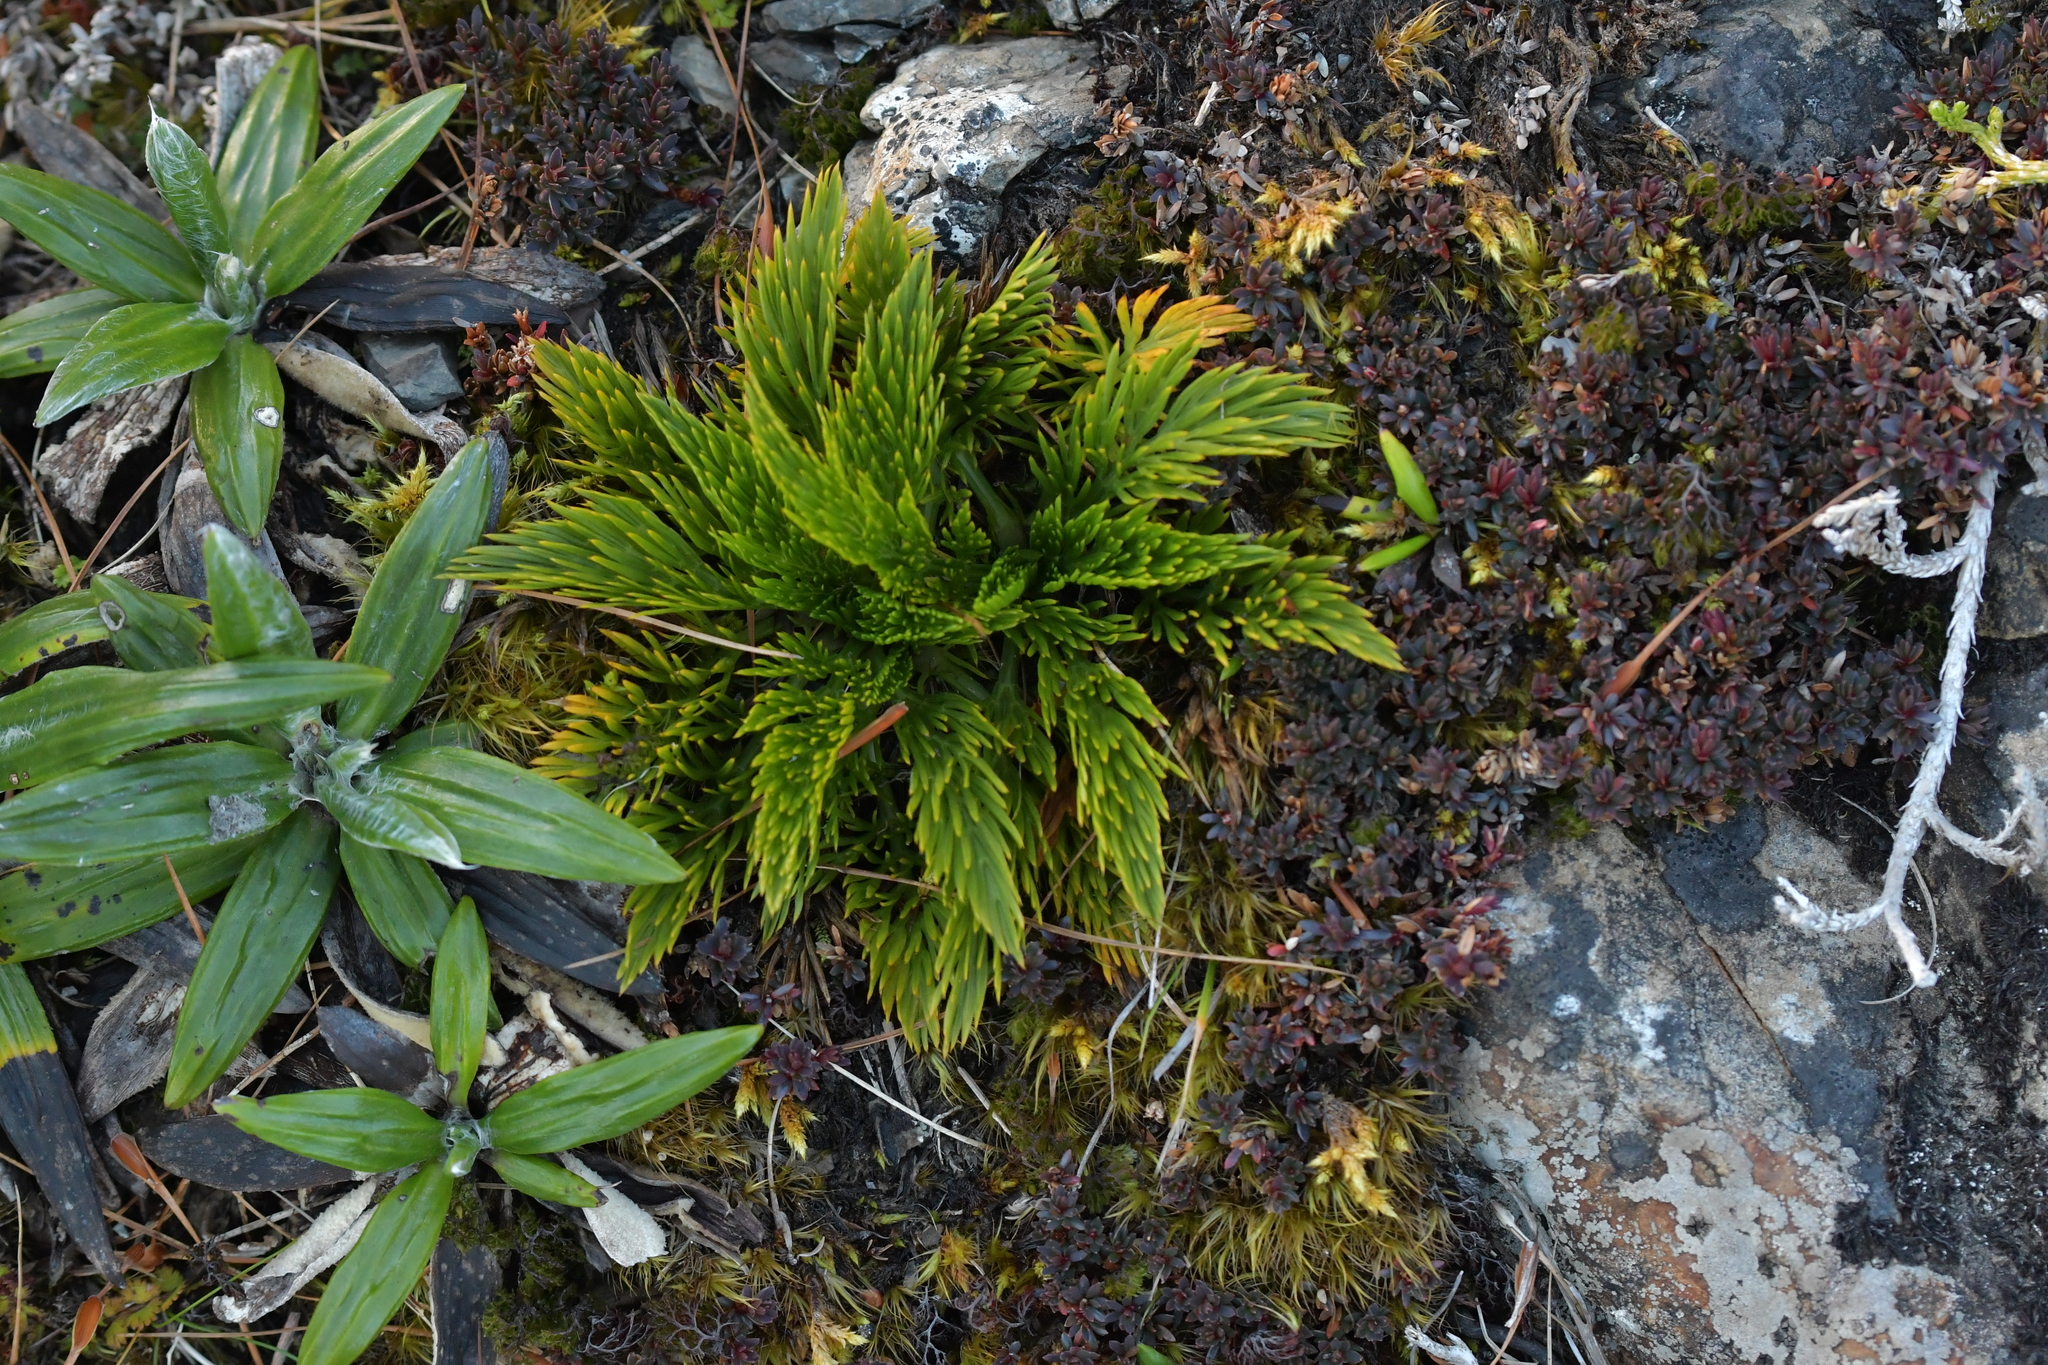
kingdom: Plantae
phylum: Tracheophyta
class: Magnoliopsida
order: Apiales
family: Apiaceae
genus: Aciphylla
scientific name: Aciphylla dissecta
